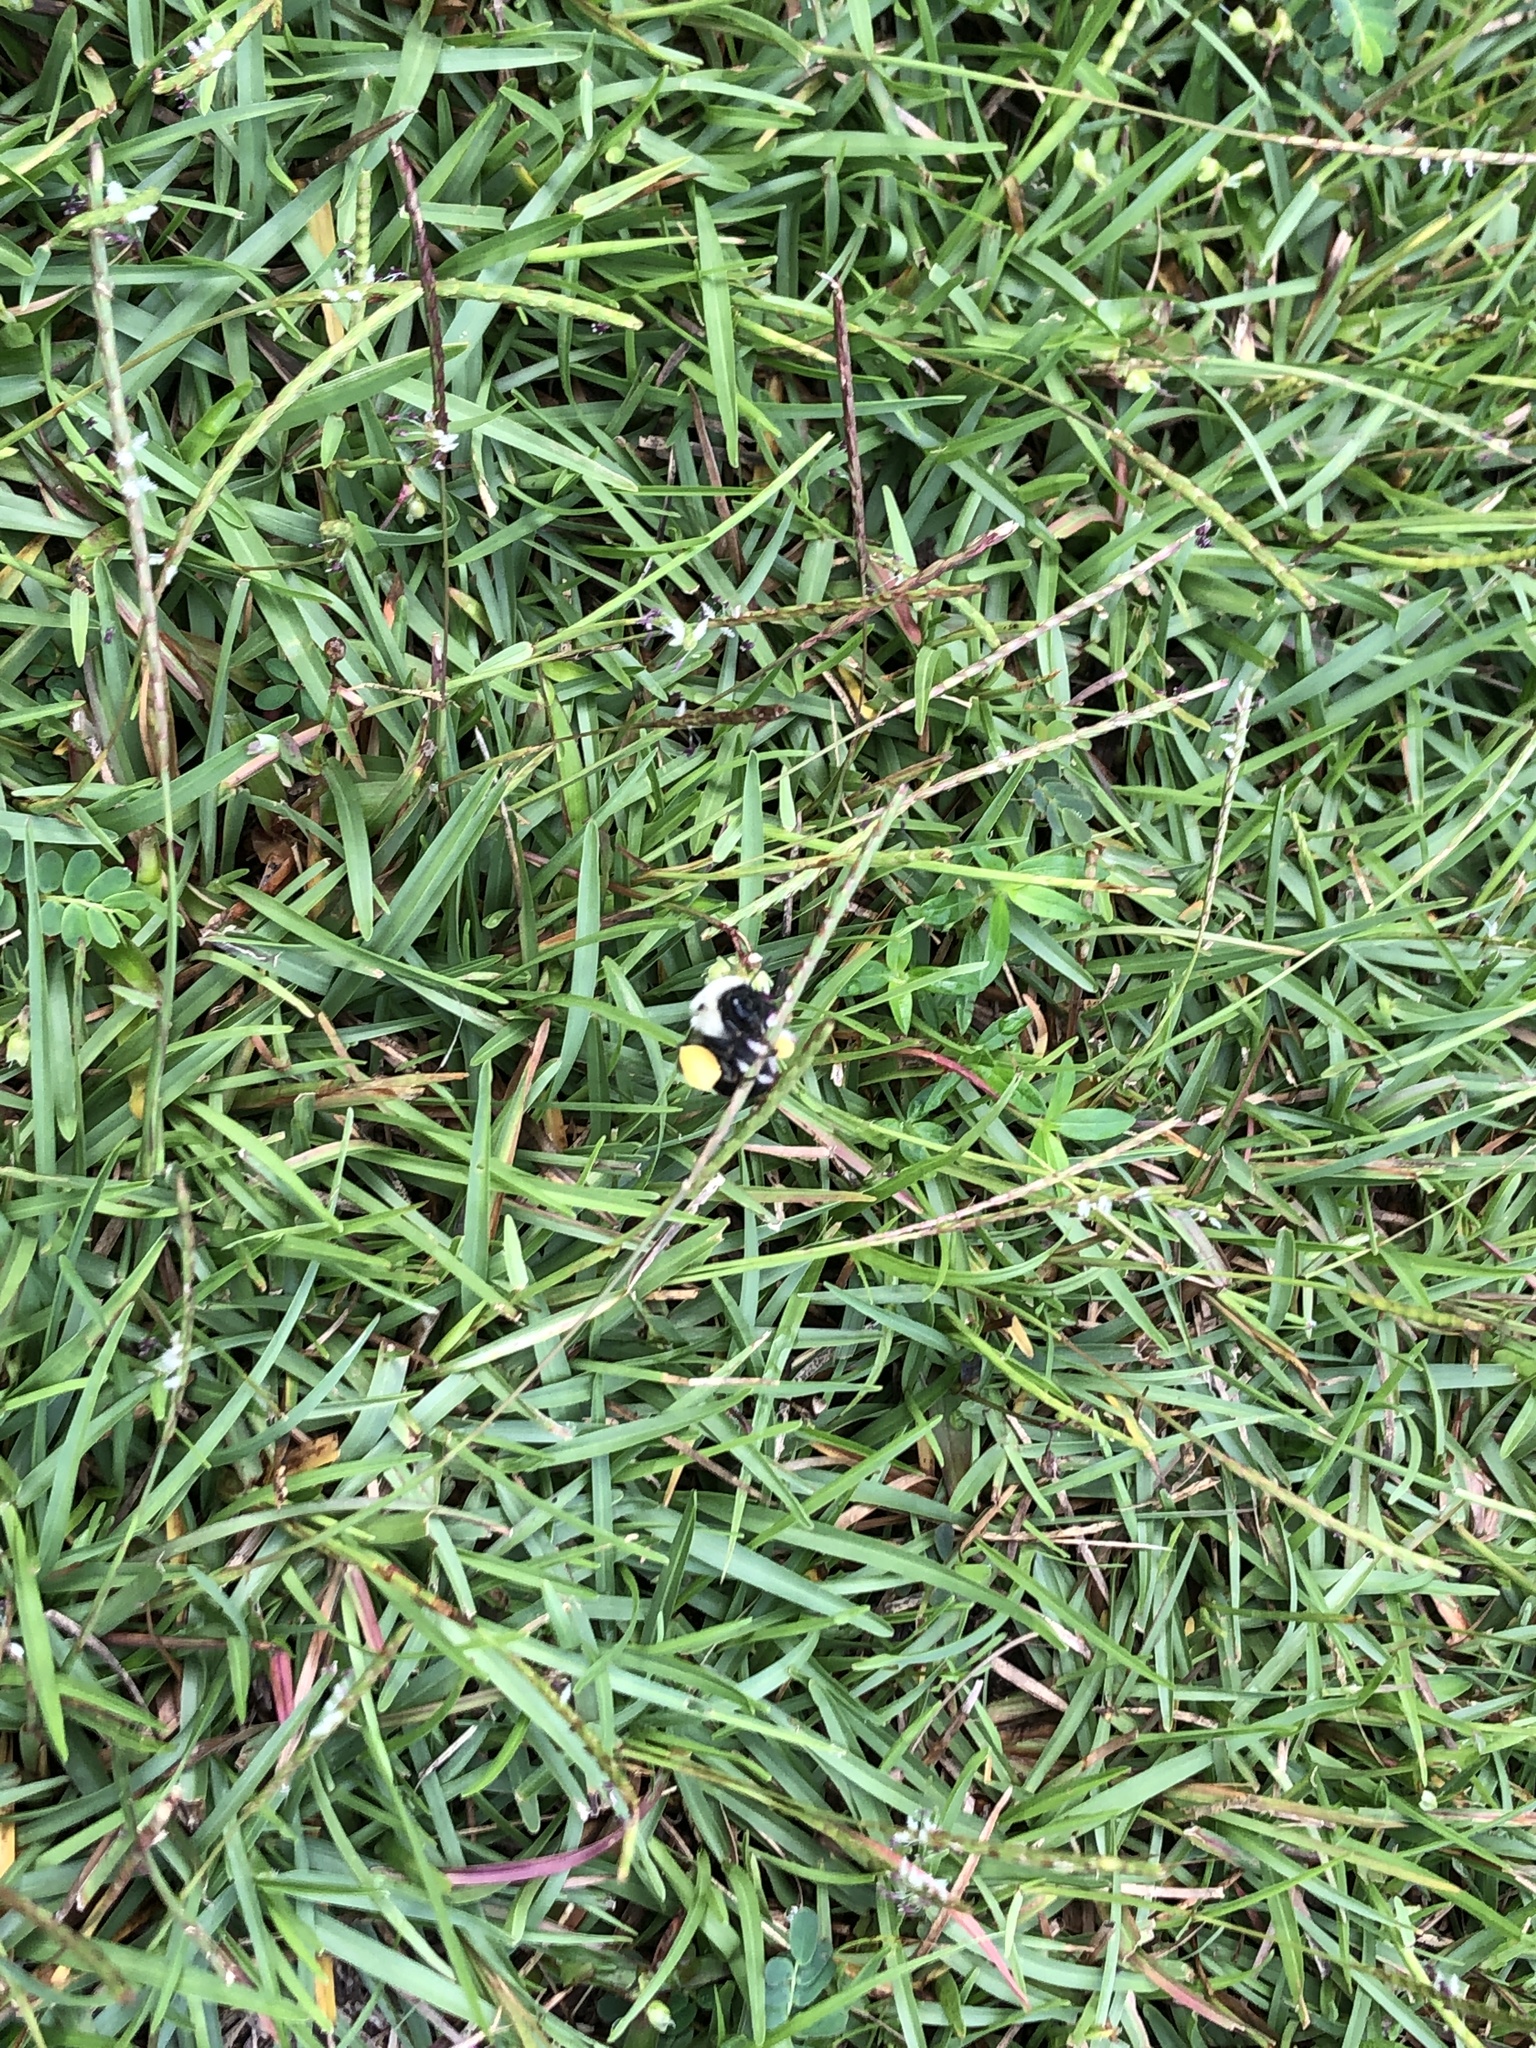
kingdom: Animalia
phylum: Arthropoda
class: Insecta
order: Hymenoptera
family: Apidae
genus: Bombus
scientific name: Bombus impatiens
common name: Common eastern bumble bee
